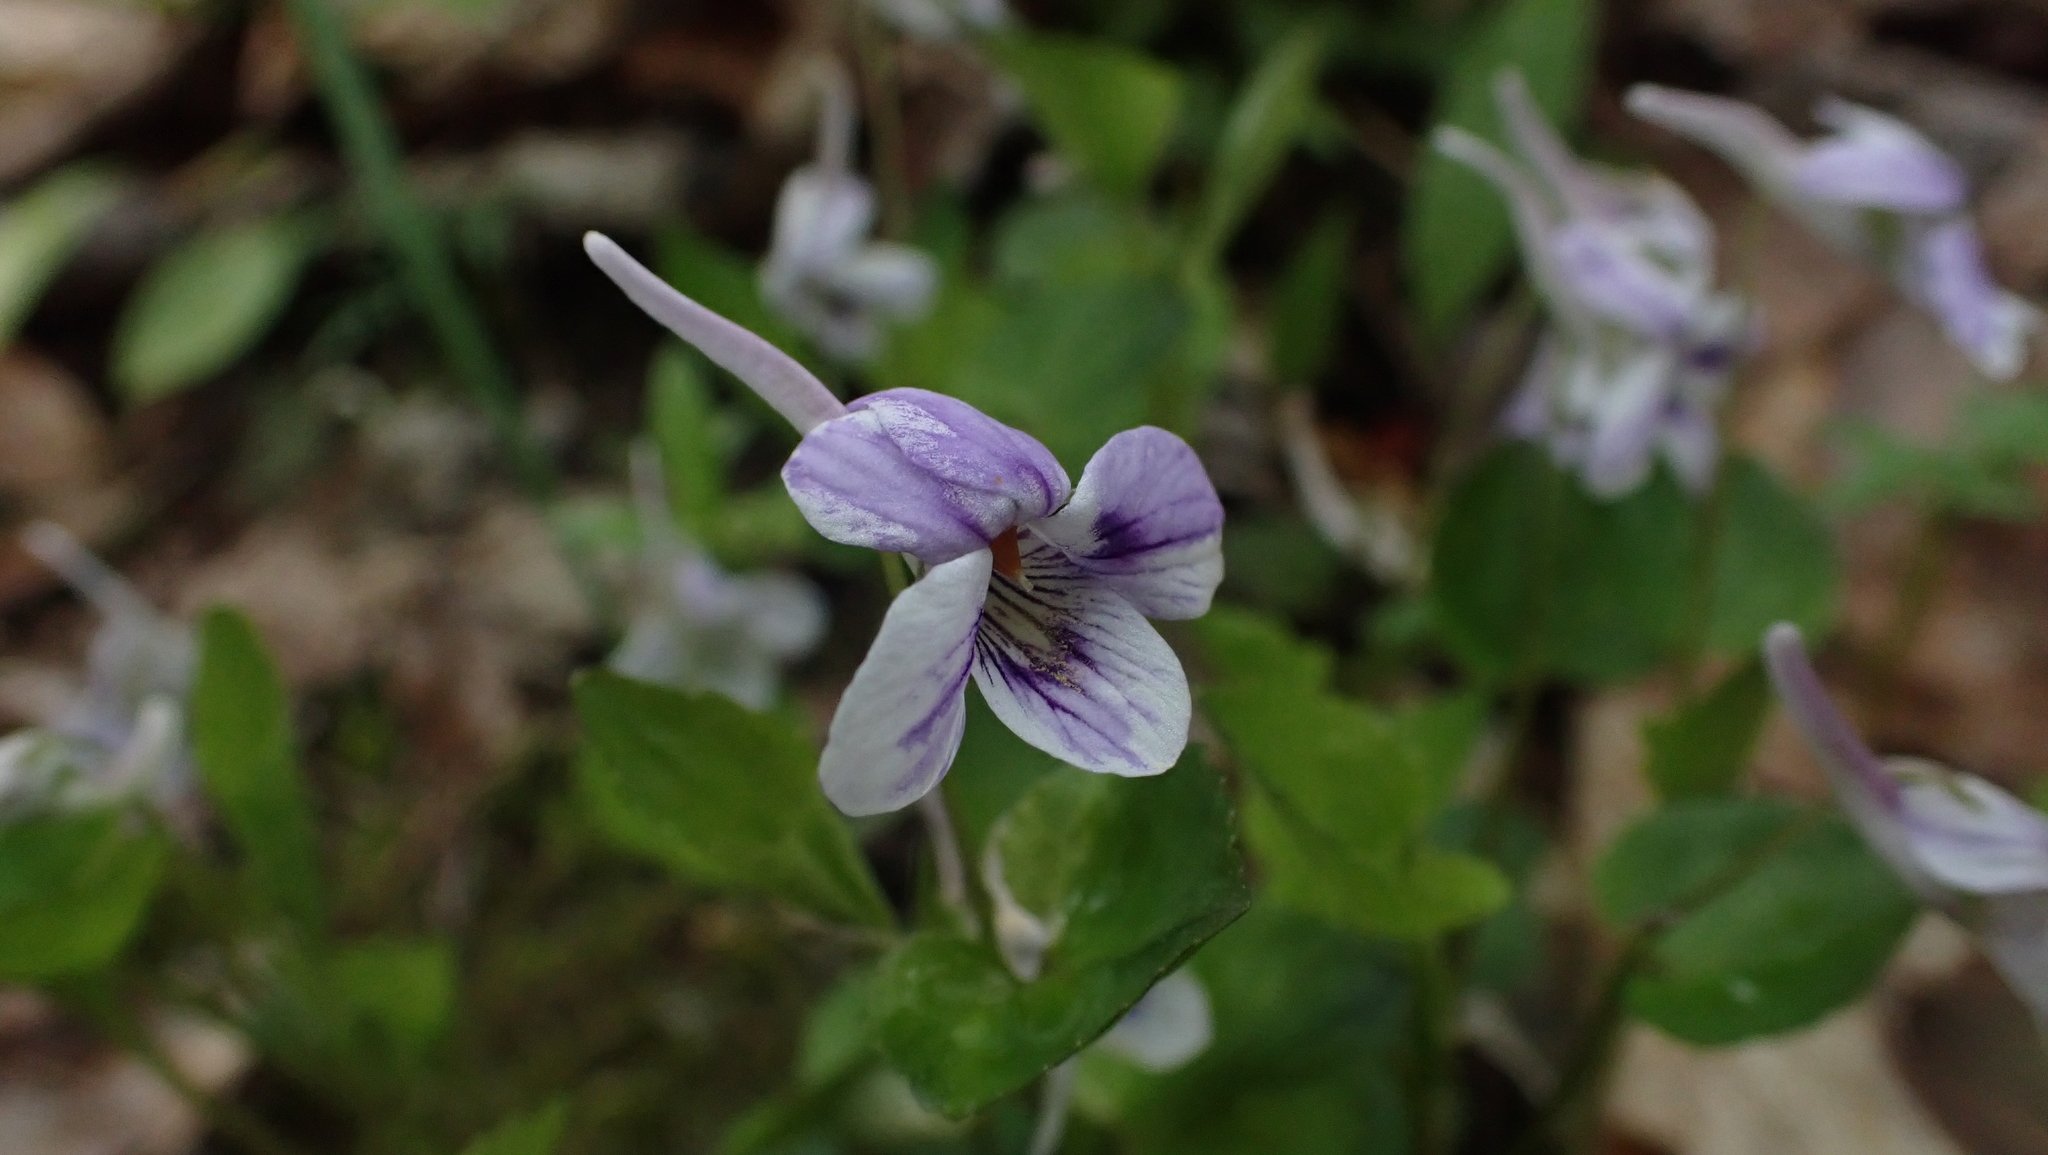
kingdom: Plantae
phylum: Tracheophyta
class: Magnoliopsida
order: Malpighiales
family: Violaceae
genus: Viola
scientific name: Viola rostrata
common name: Long-spur violet
